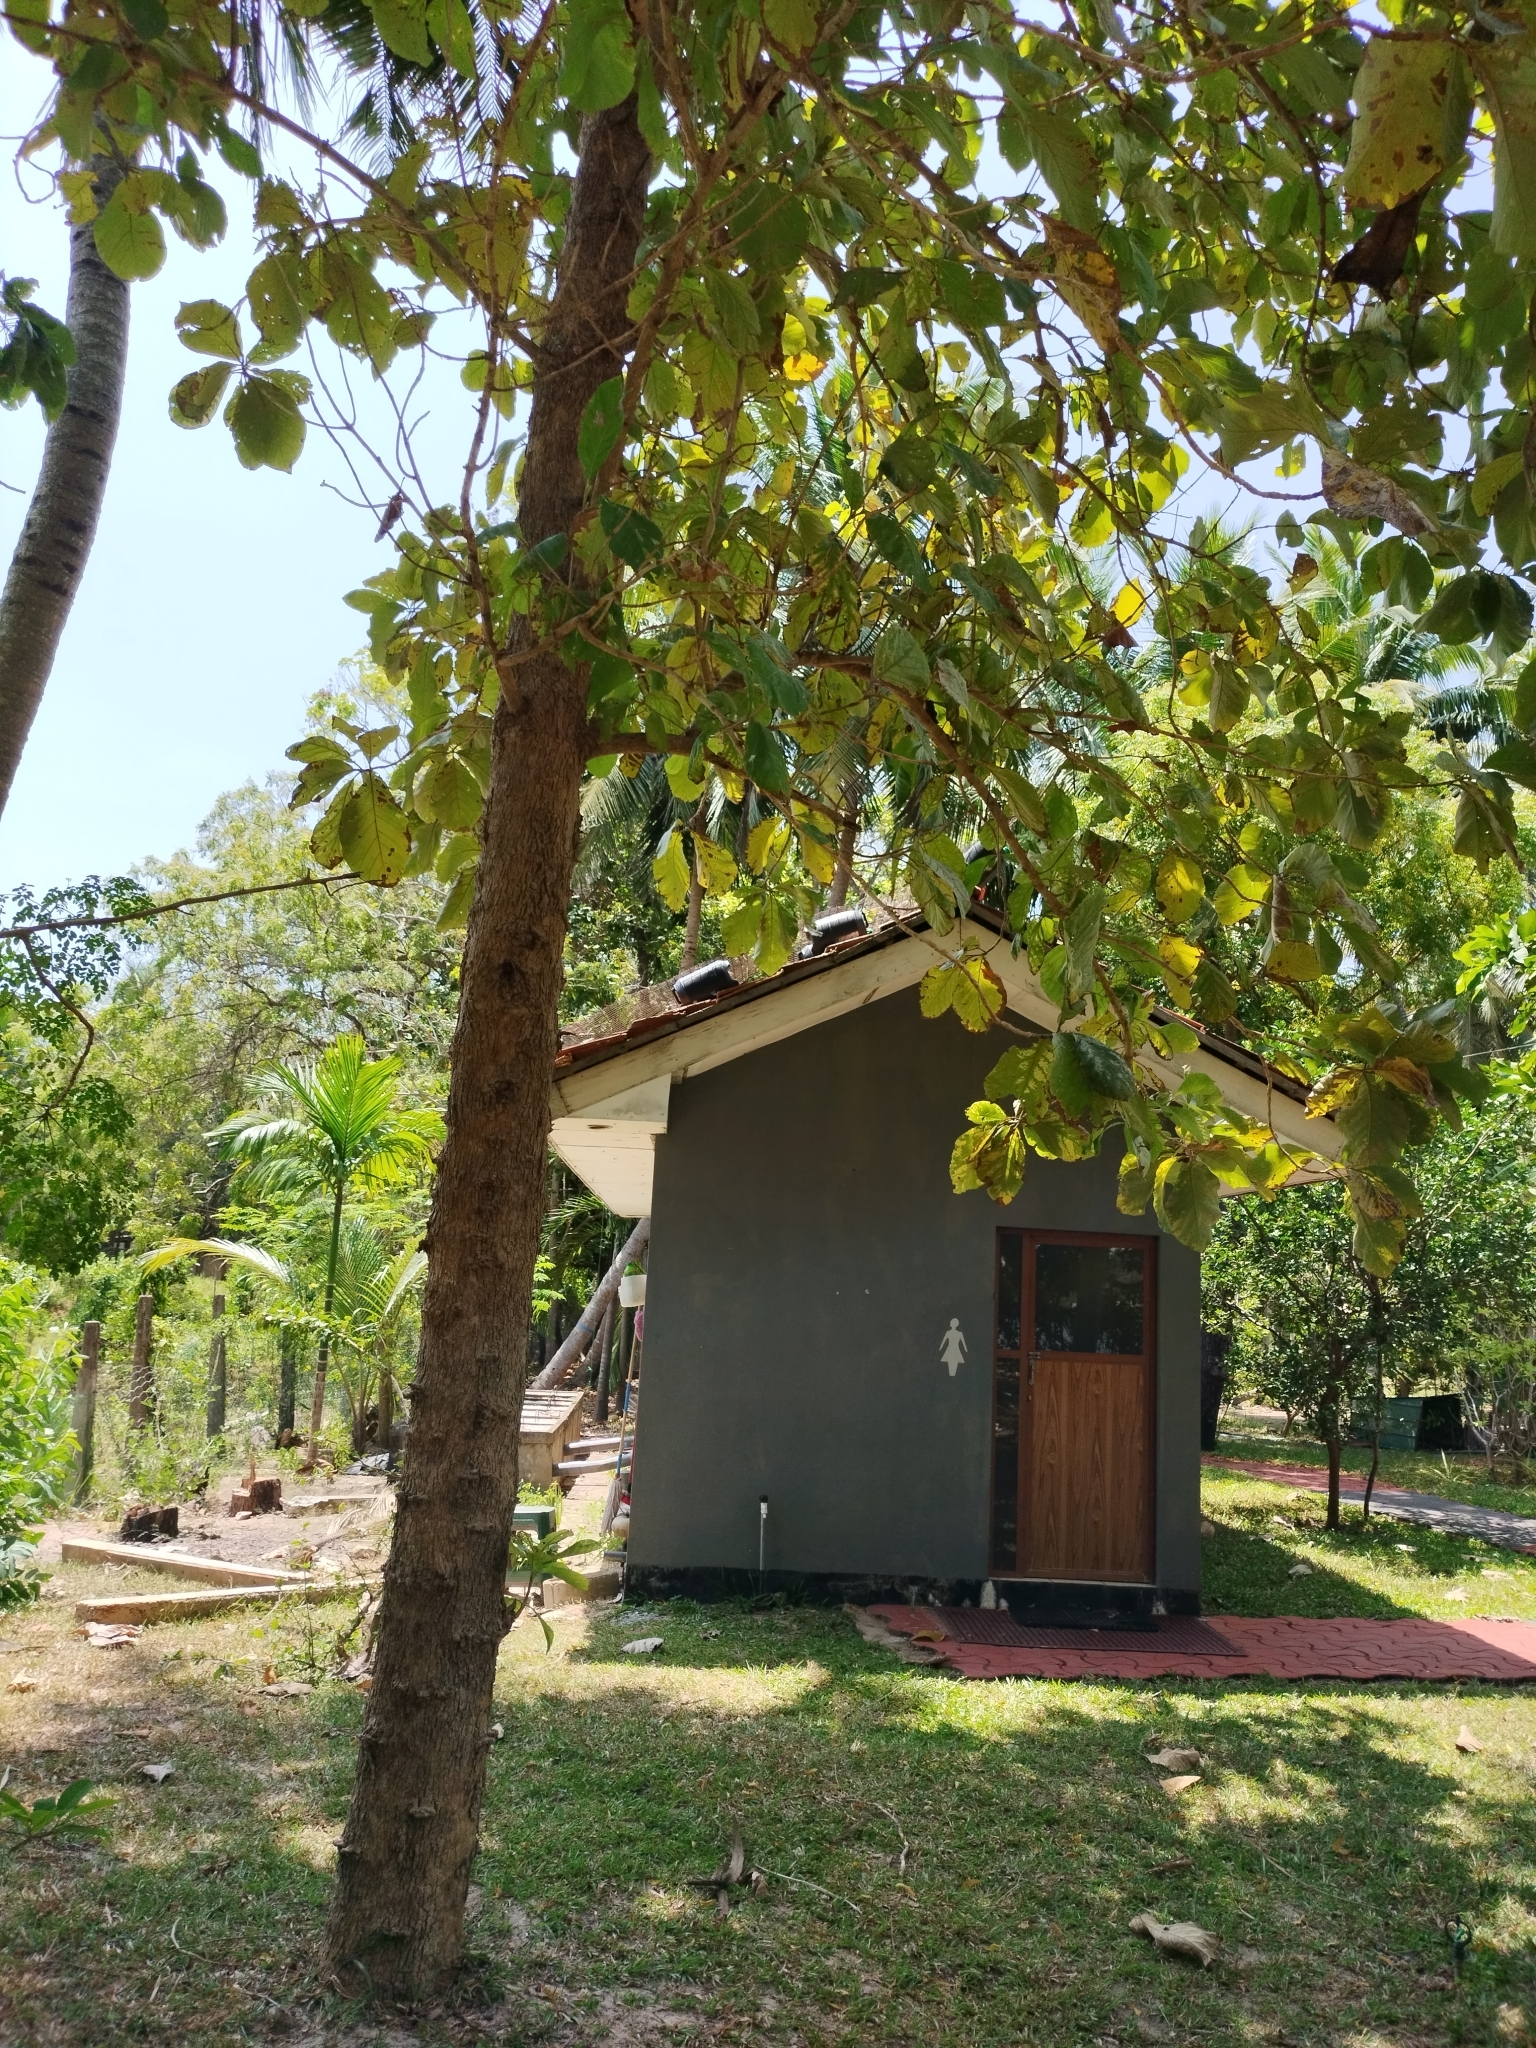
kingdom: Plantae
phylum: Tracheophyta
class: Magnoliopsida
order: Lamiales
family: Lamiaceae
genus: Tectona
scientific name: Tectona grandis
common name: Teak
